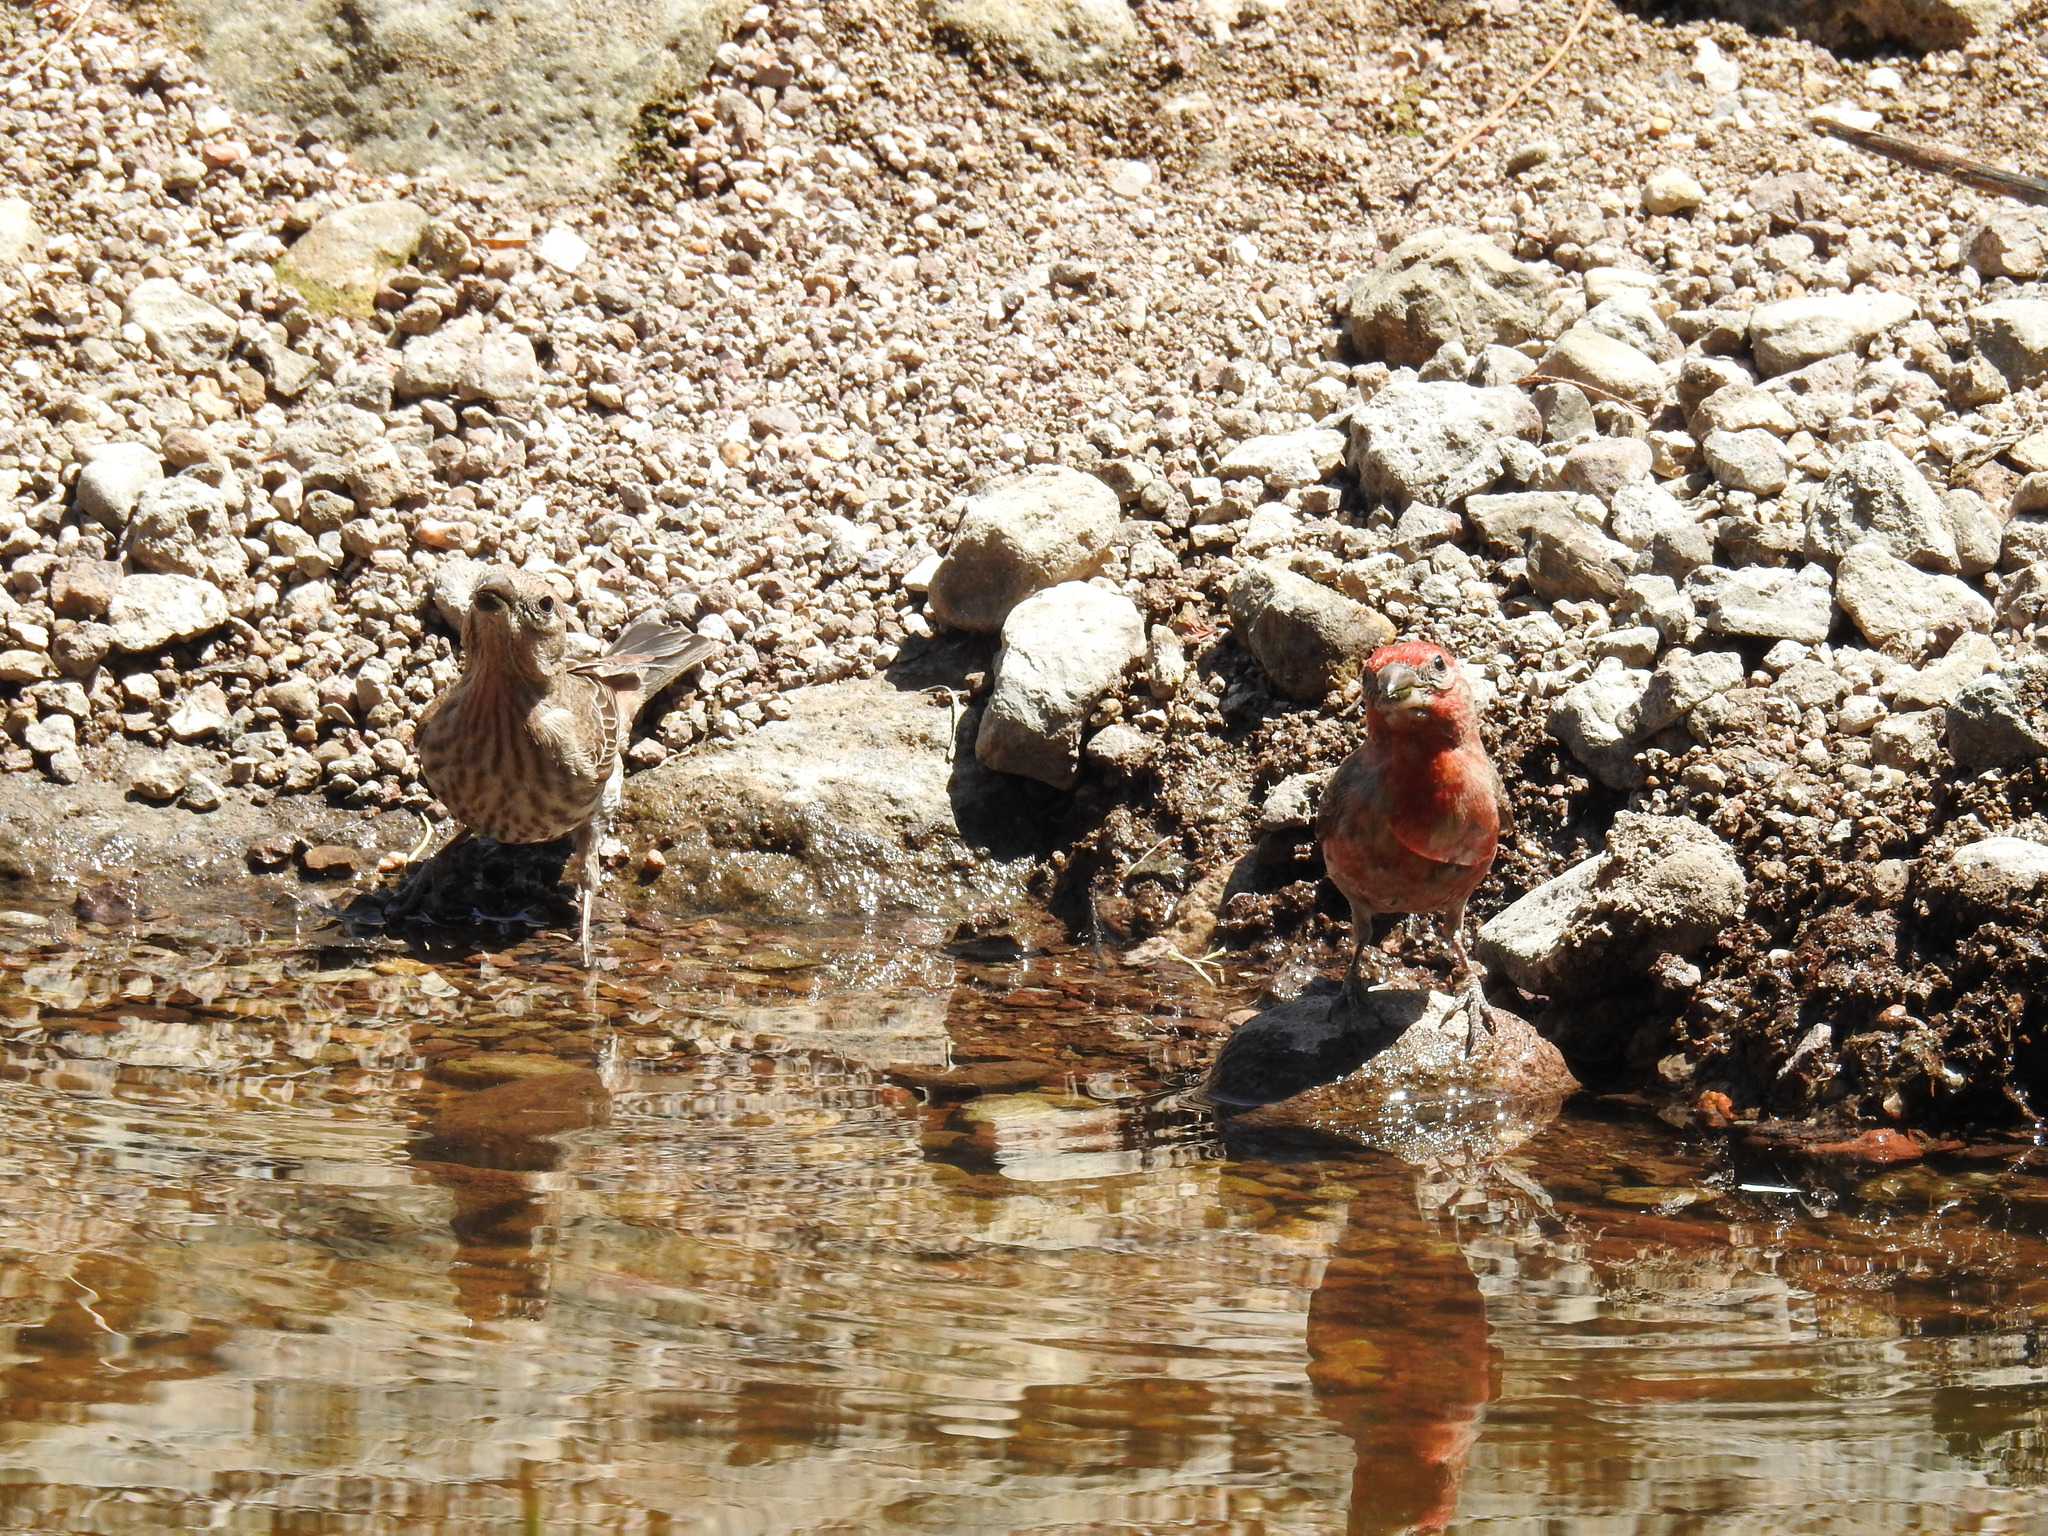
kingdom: Animalia
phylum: Chordata
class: Aves
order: Passeriformes
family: Fringillidae
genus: Haemorhous
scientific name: Haemorhous mexicanus
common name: House finch
